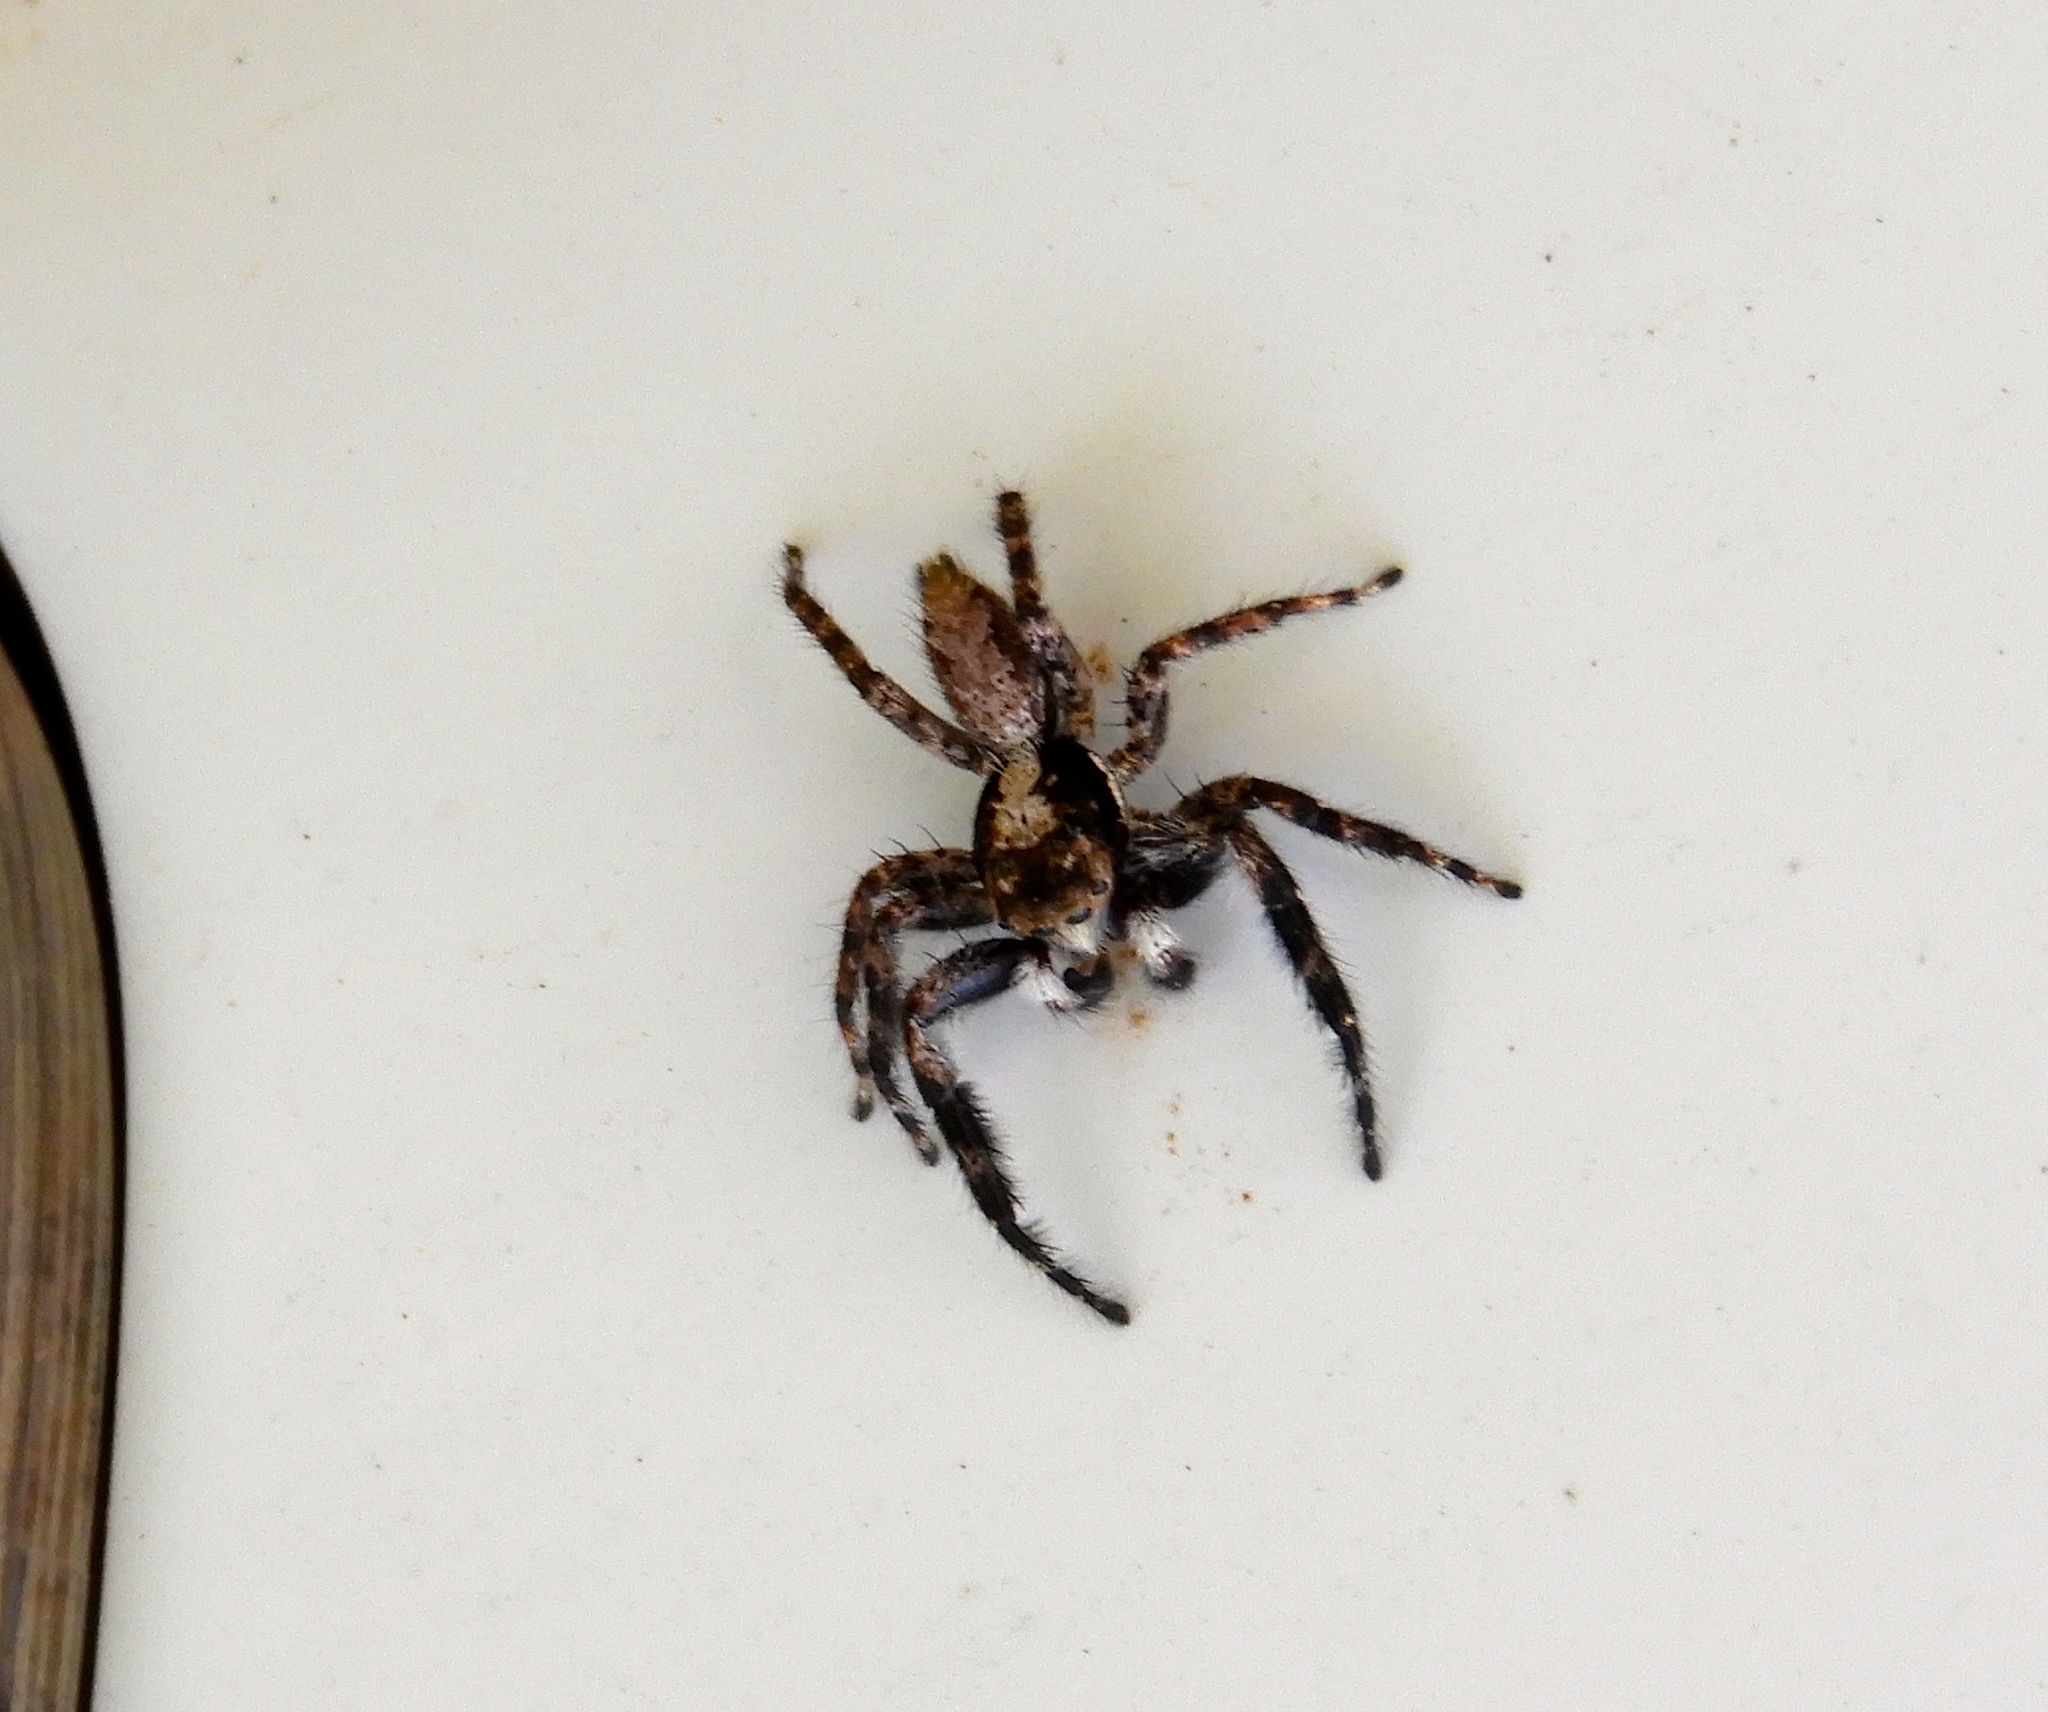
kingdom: Animalia
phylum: Arthropoda
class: Arachnida
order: Araneae
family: Salticidae
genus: Balmaceda
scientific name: Balmaceda
